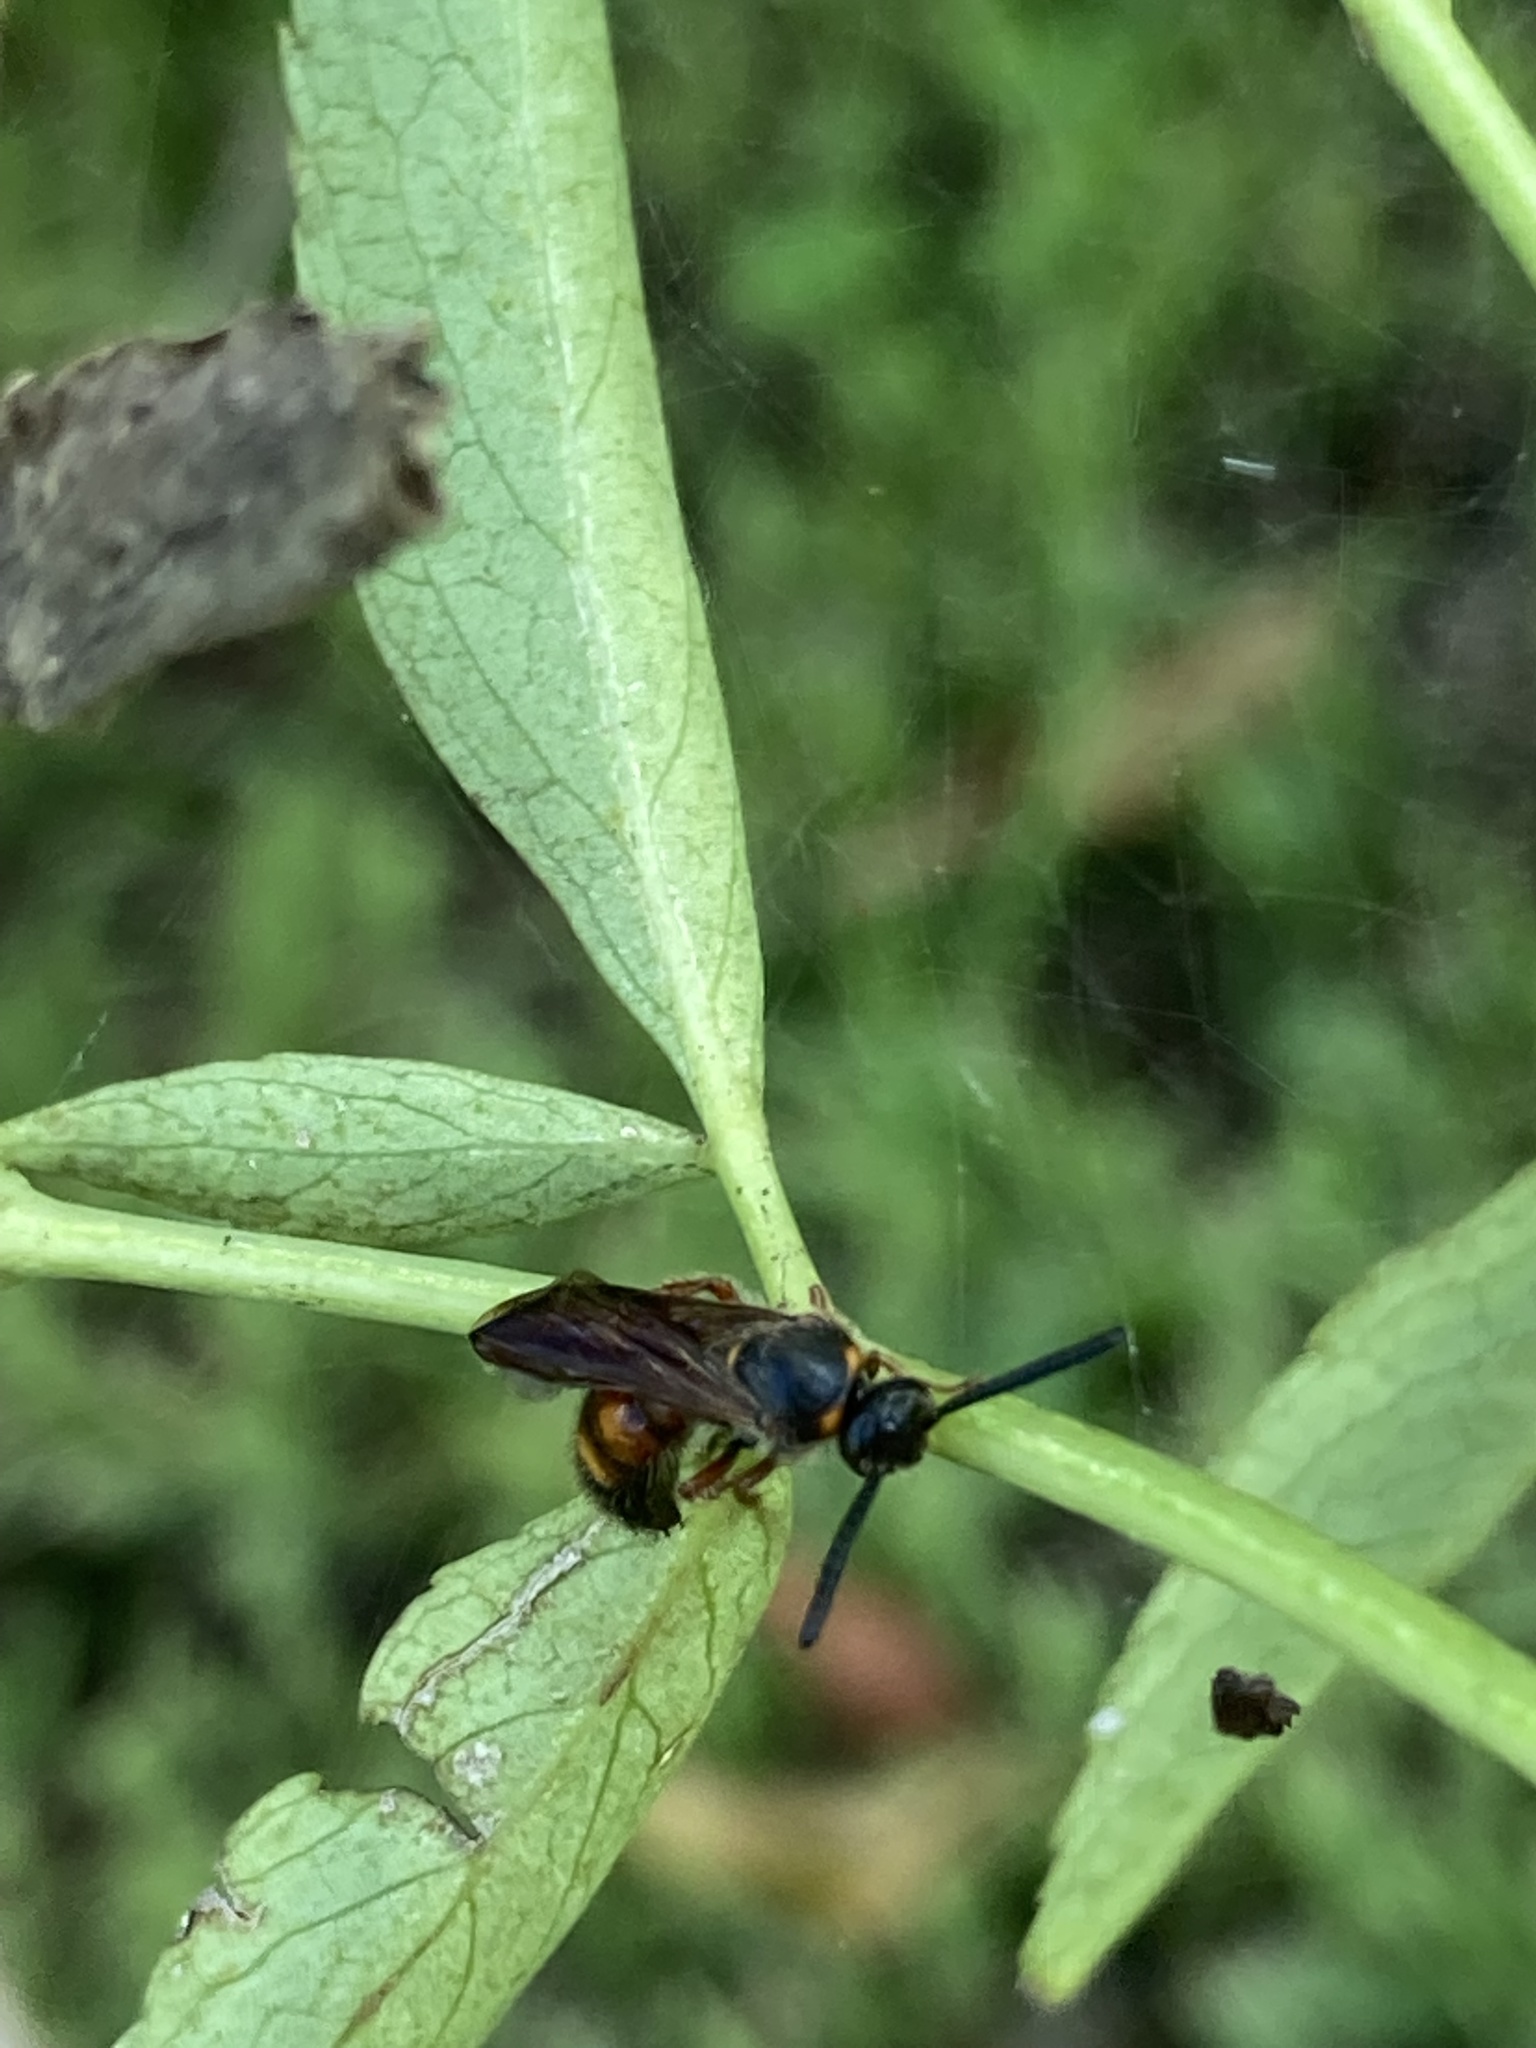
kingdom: Animalia
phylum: Arthropoda
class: Insecta
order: Hymenoptera
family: Scoliidae
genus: Scolia
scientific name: Scolia nobilitata
